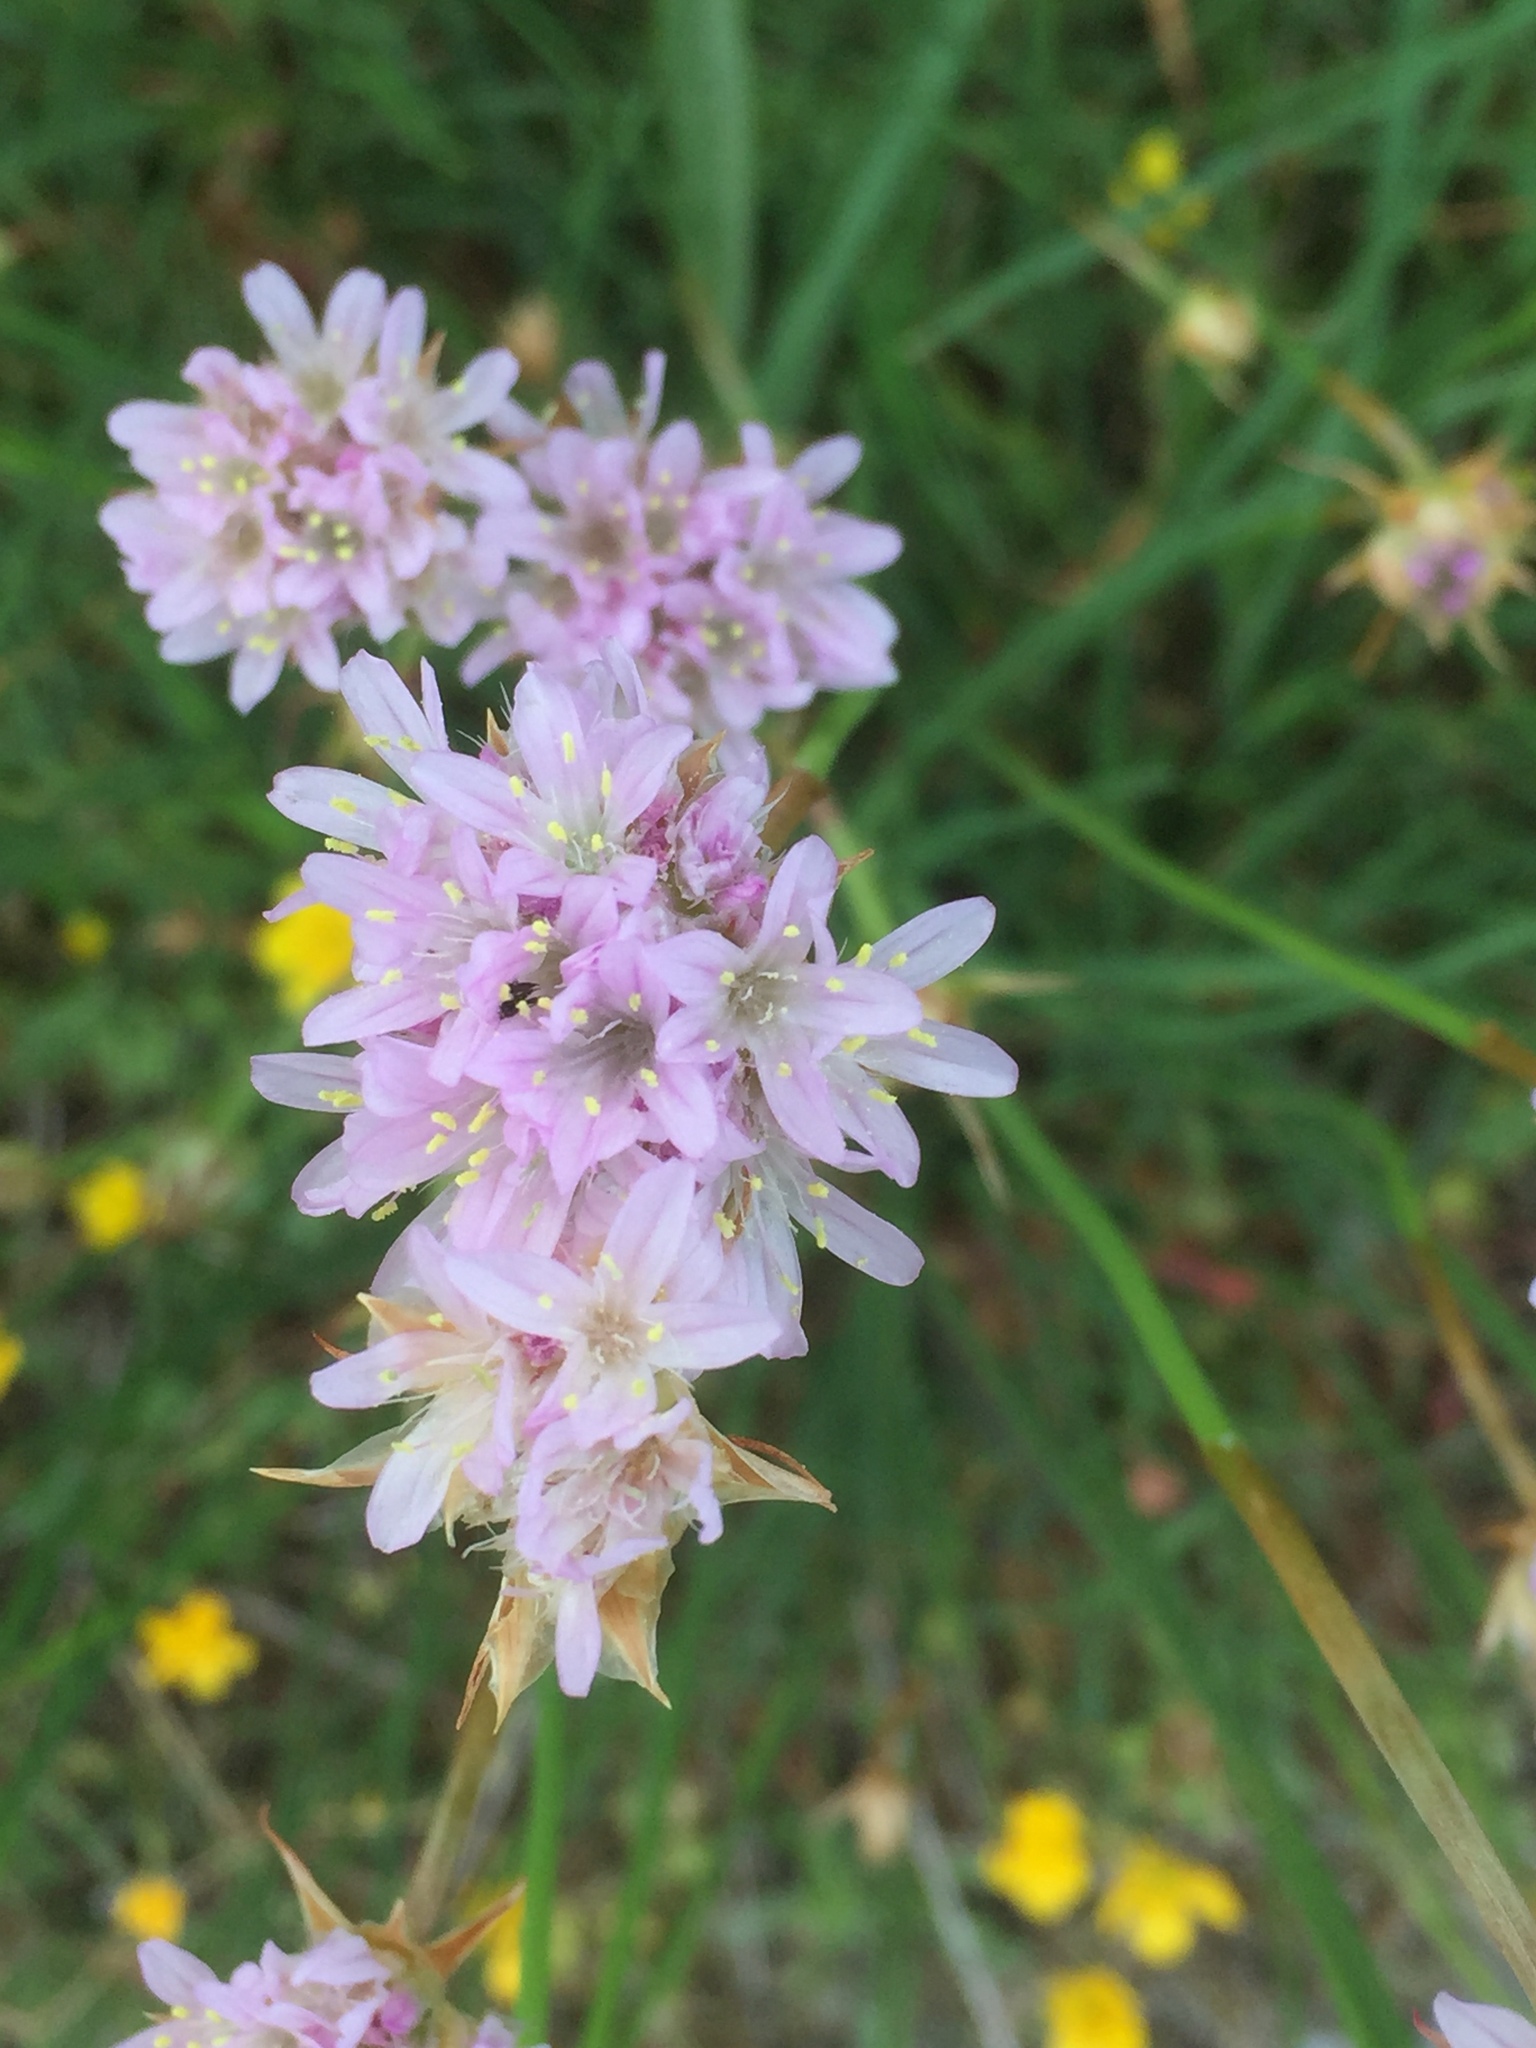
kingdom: Plantae
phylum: Tracheophyta
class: Magnoliopsida
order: Caryophyllales
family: Plumbaginaceae
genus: Armeria
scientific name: Armeria beirana
